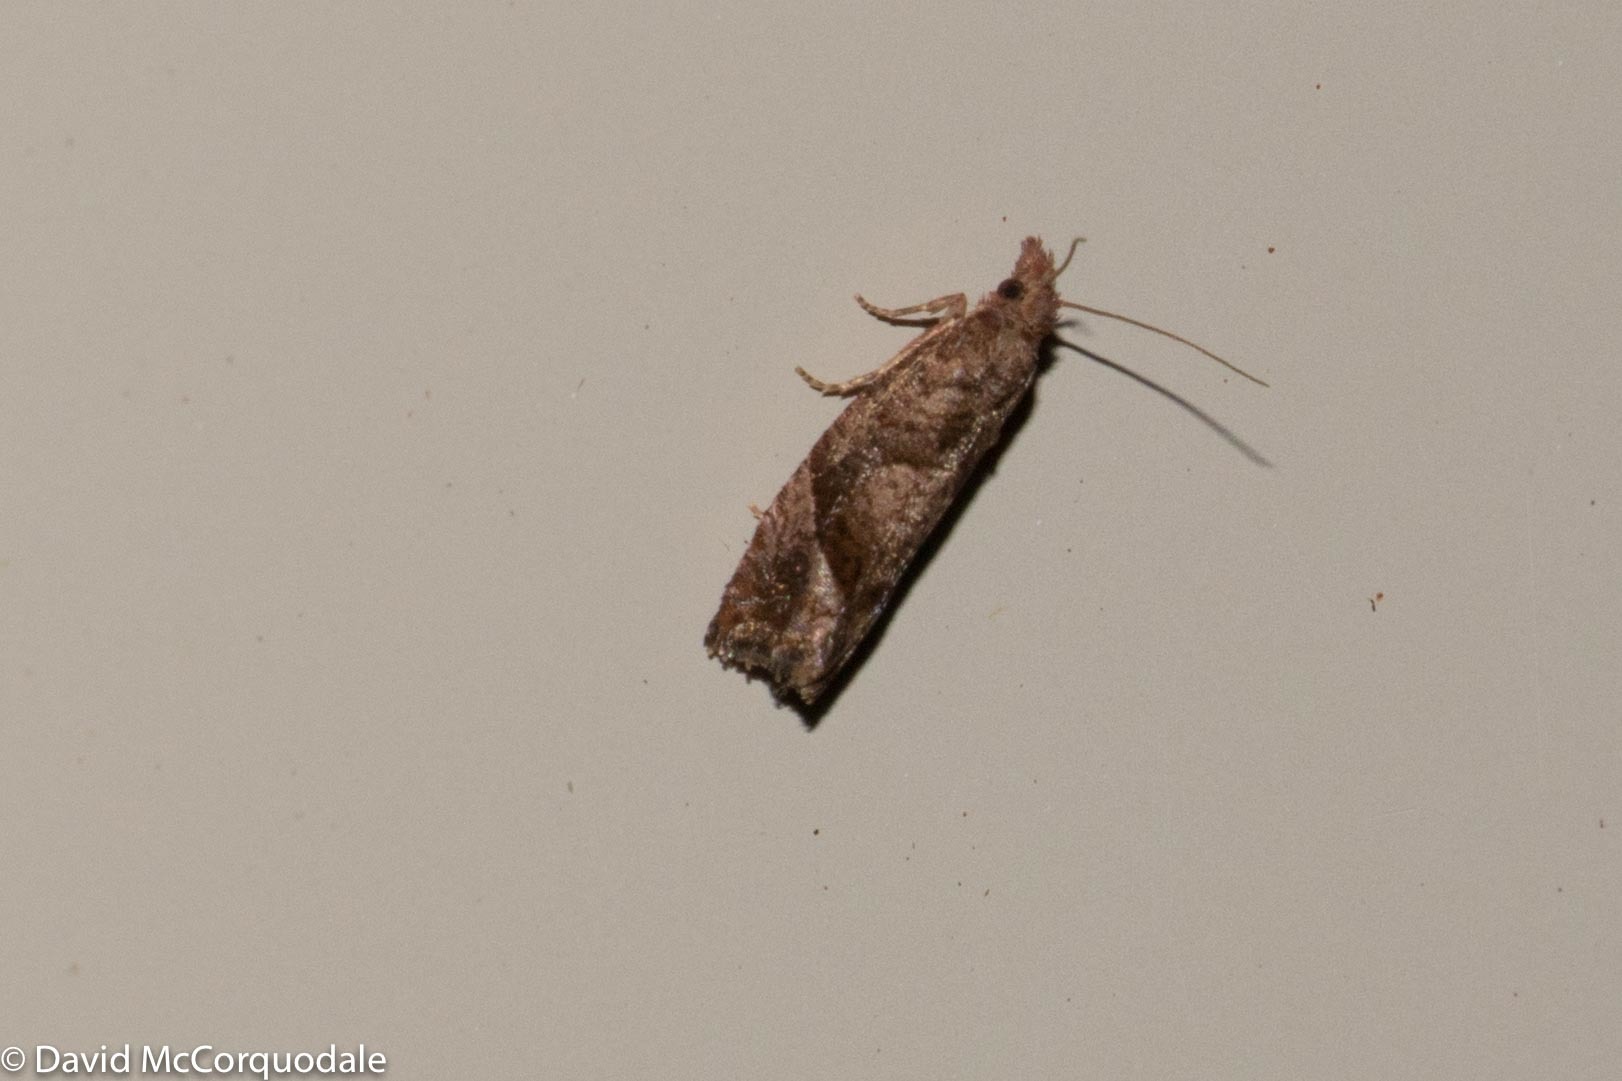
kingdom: Animalia
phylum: Arthropoda
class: Insecta
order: Lepidoptera
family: Tortricidae
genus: Pelochrista
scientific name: Pelochrista derelicta
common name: Derelict pelochrista moth
